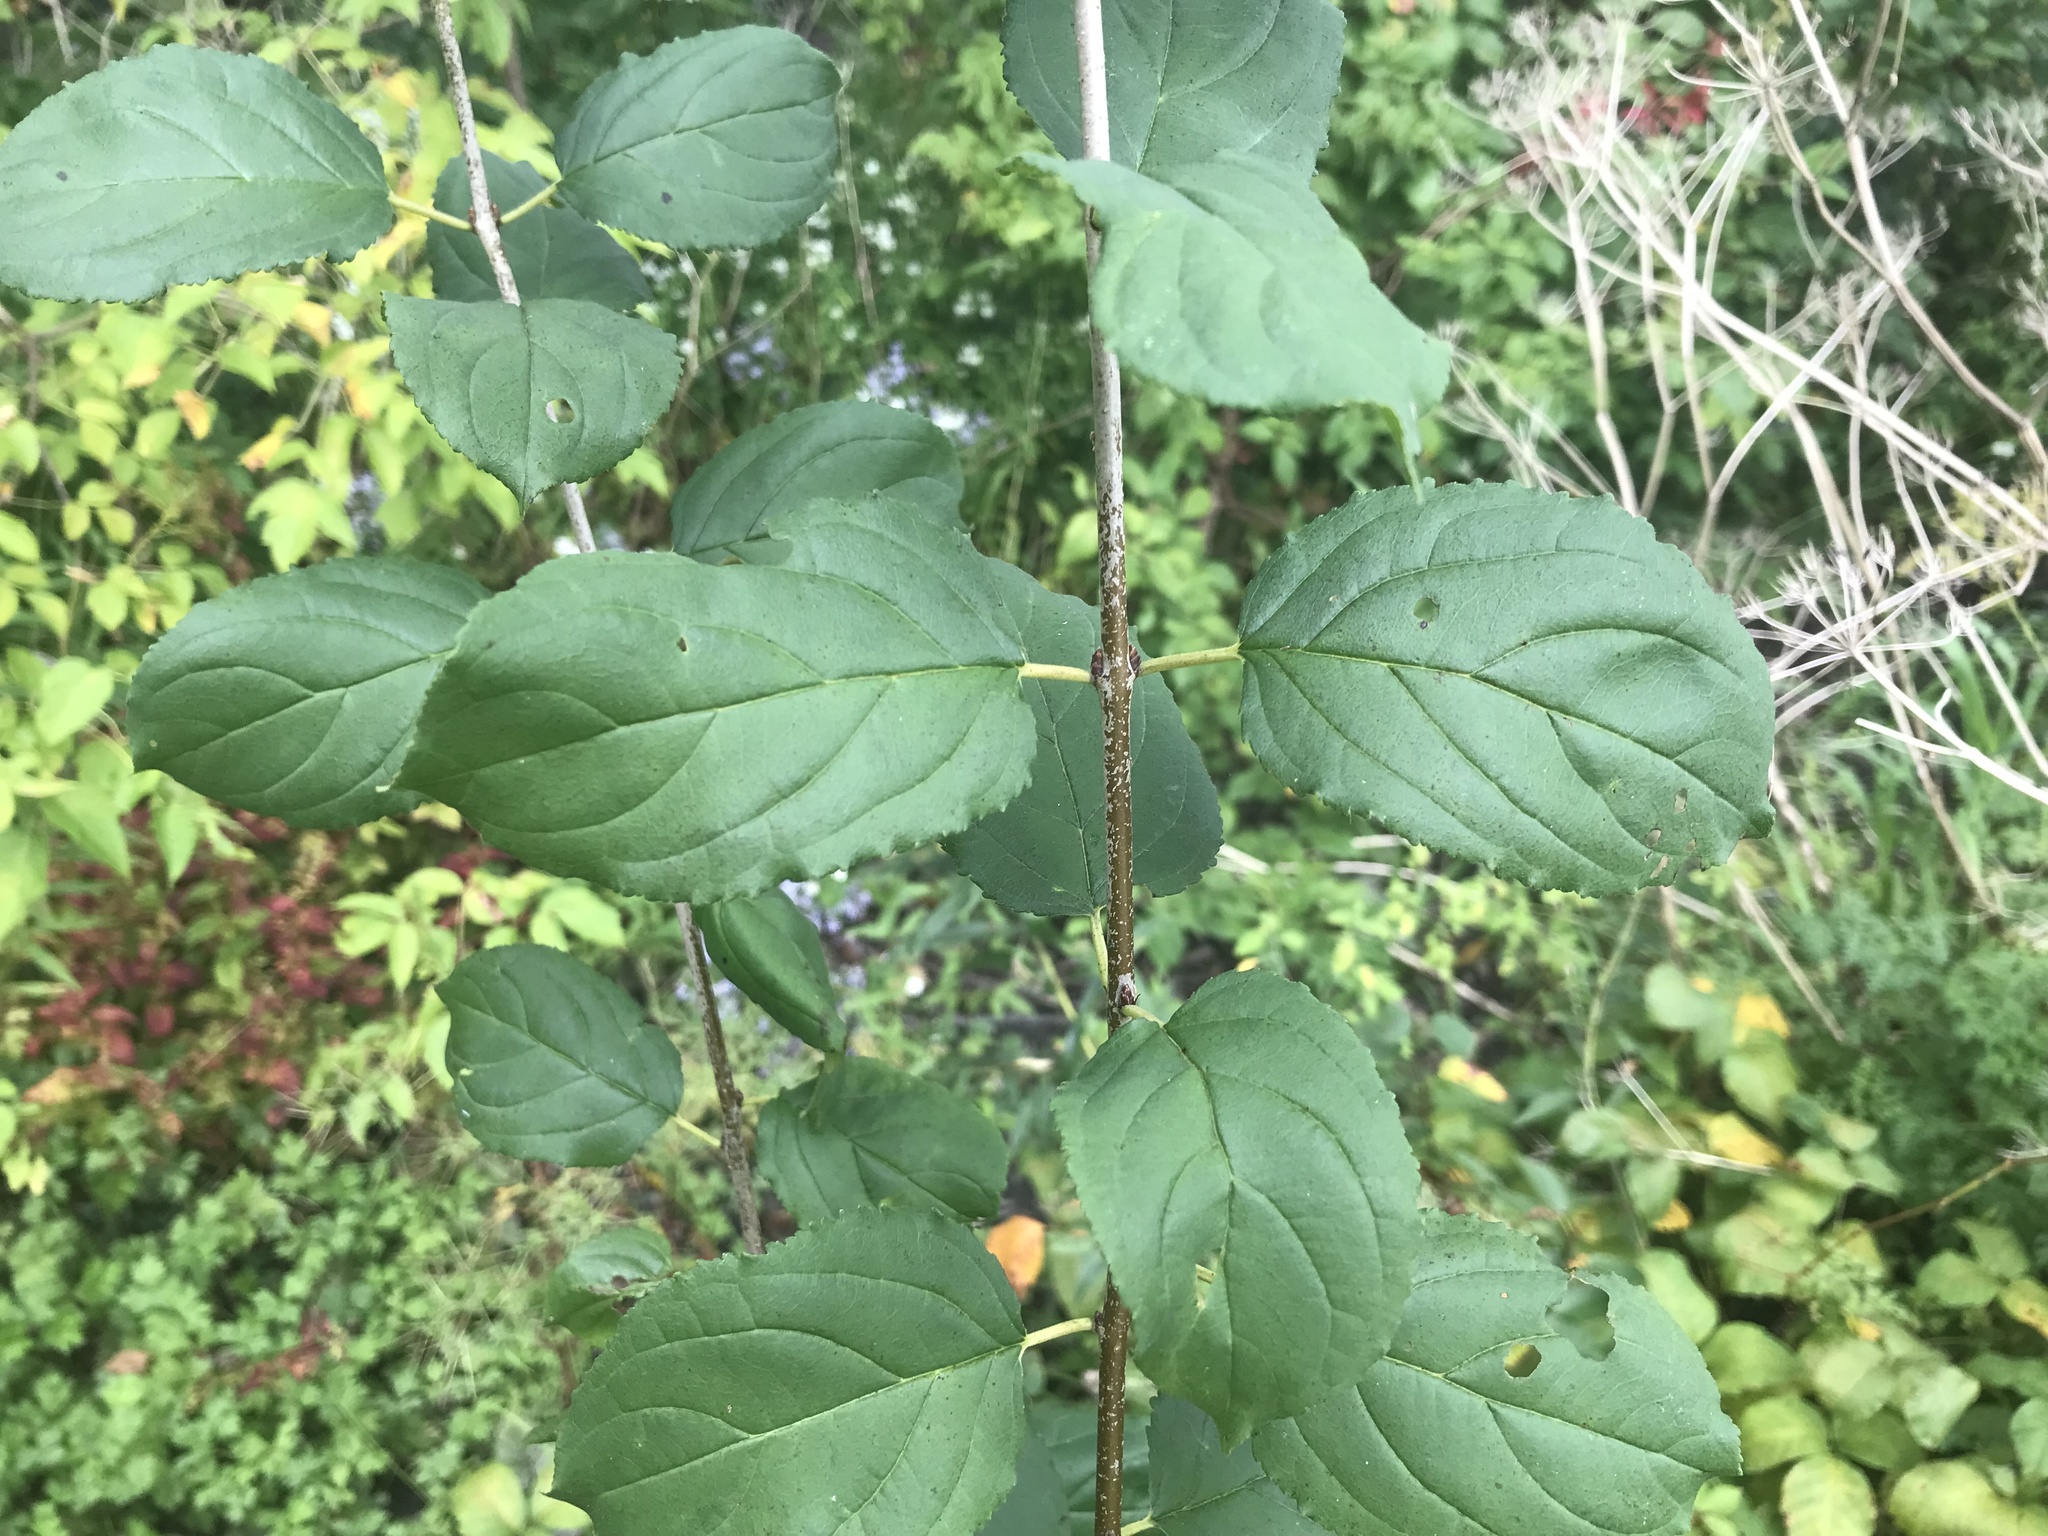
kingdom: Plantae
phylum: Tracheophyta
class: Magnoliopsida
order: Rosales
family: Rhamnaceae
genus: Rhamnus
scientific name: Rhamnus cathartica
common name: Common buckthorn
